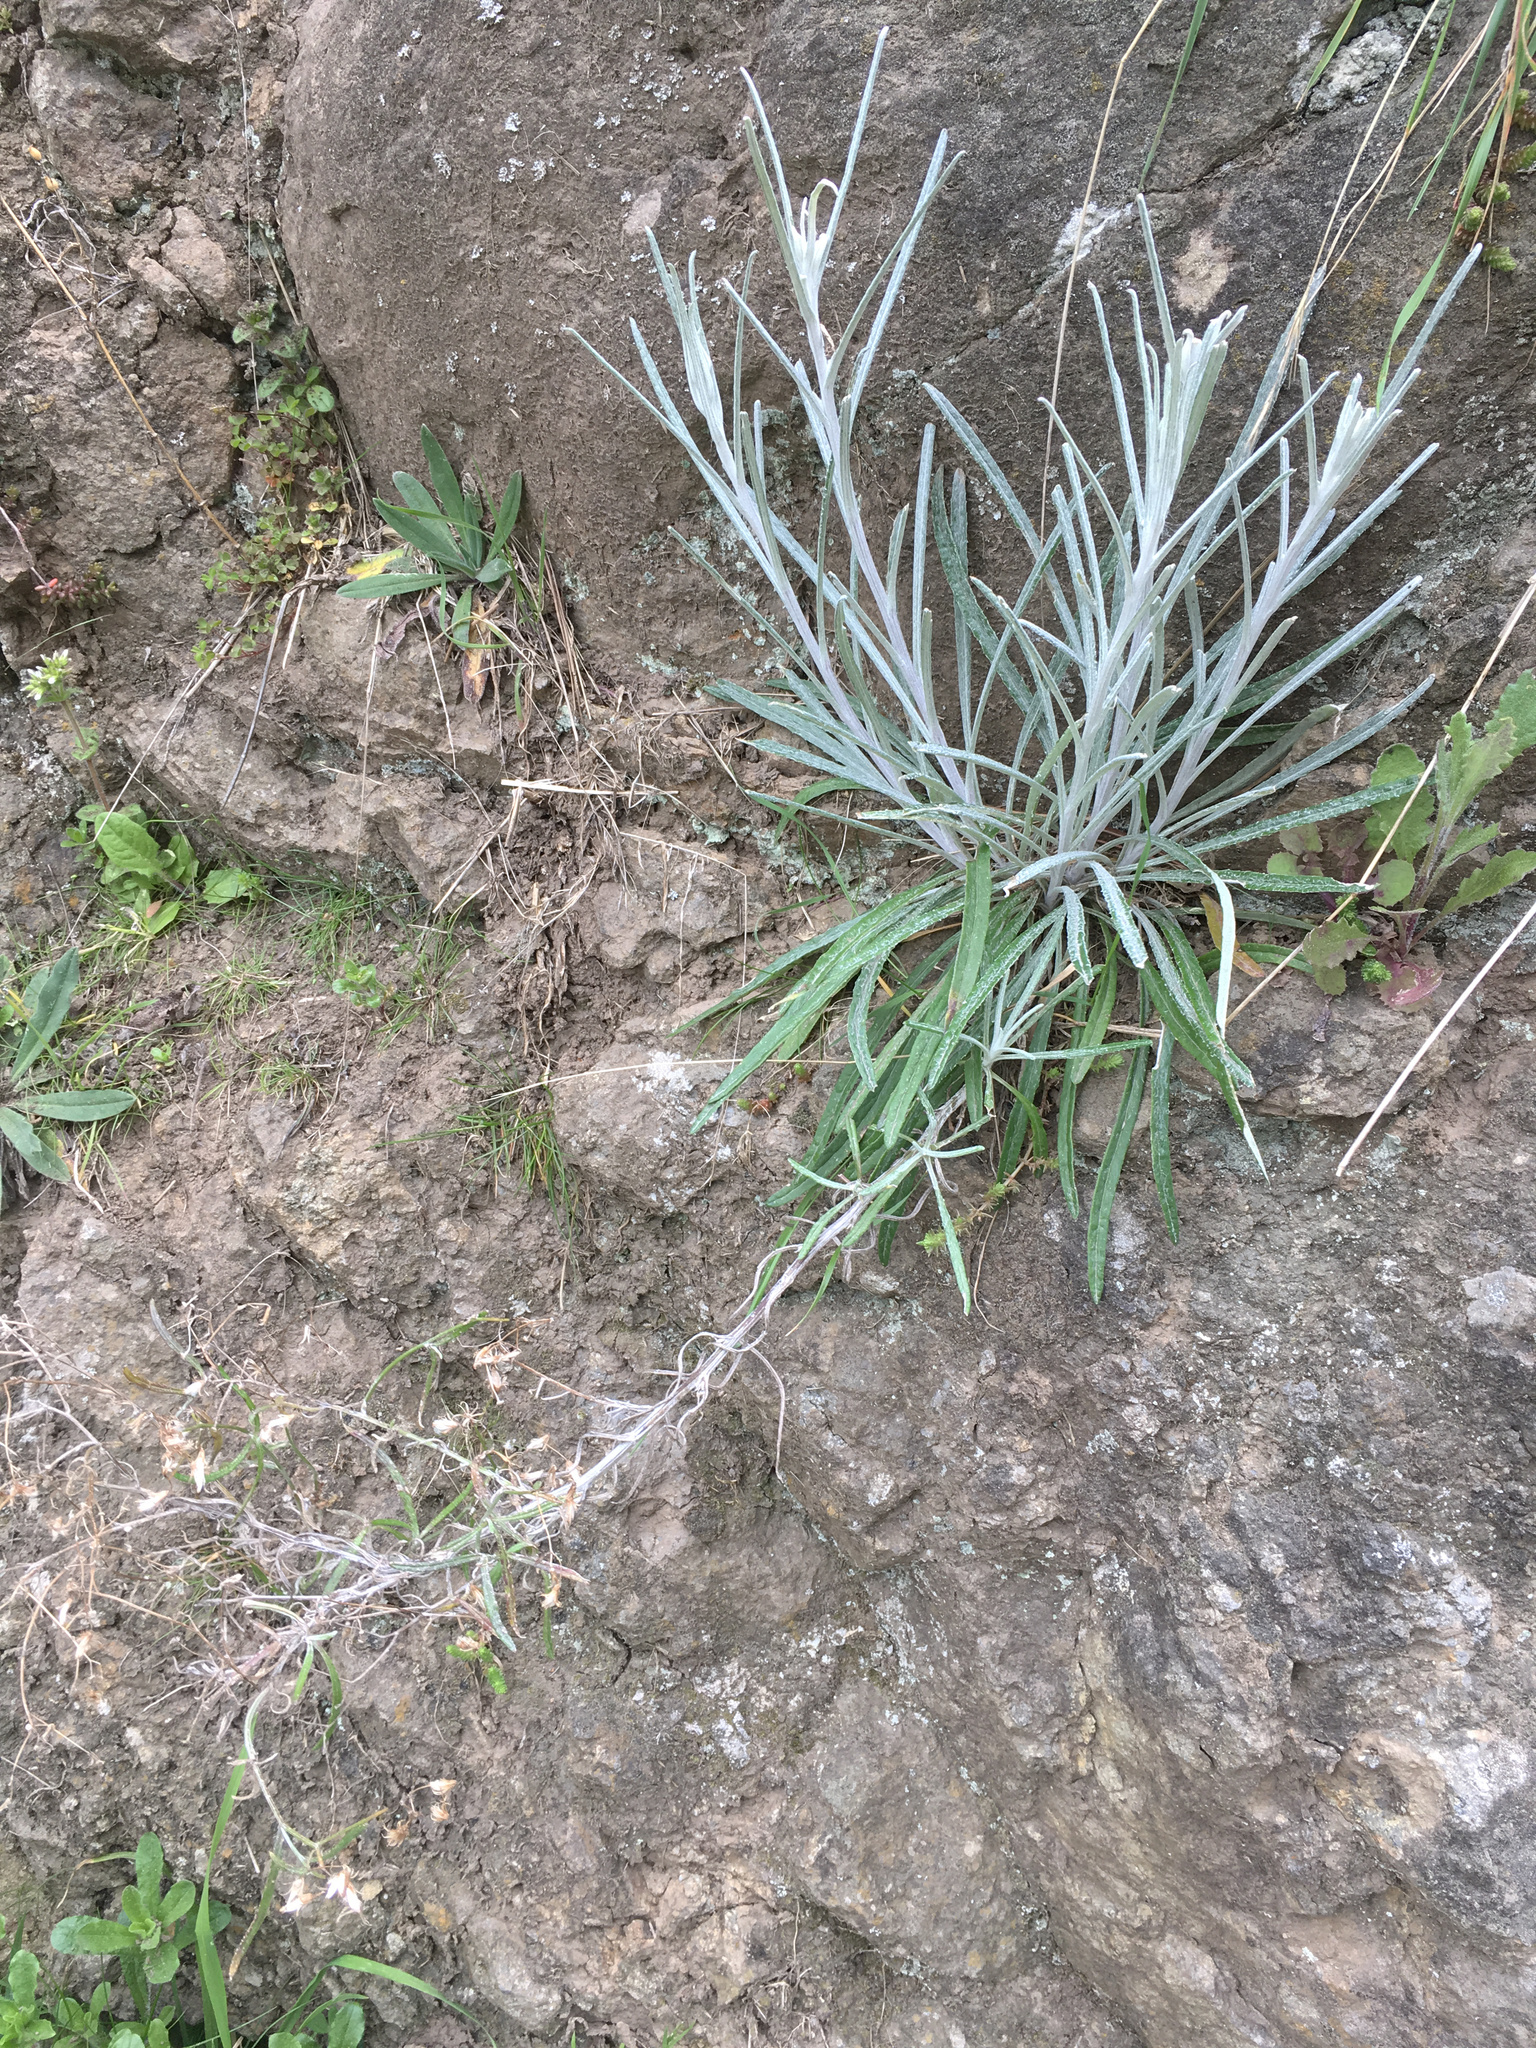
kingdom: Plantae
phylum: Tracheophyta
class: Magnoliopsida
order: Asterales
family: Asteraceae
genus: Senecio
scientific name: Senecio quadridentatus
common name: Cotton fireweed
